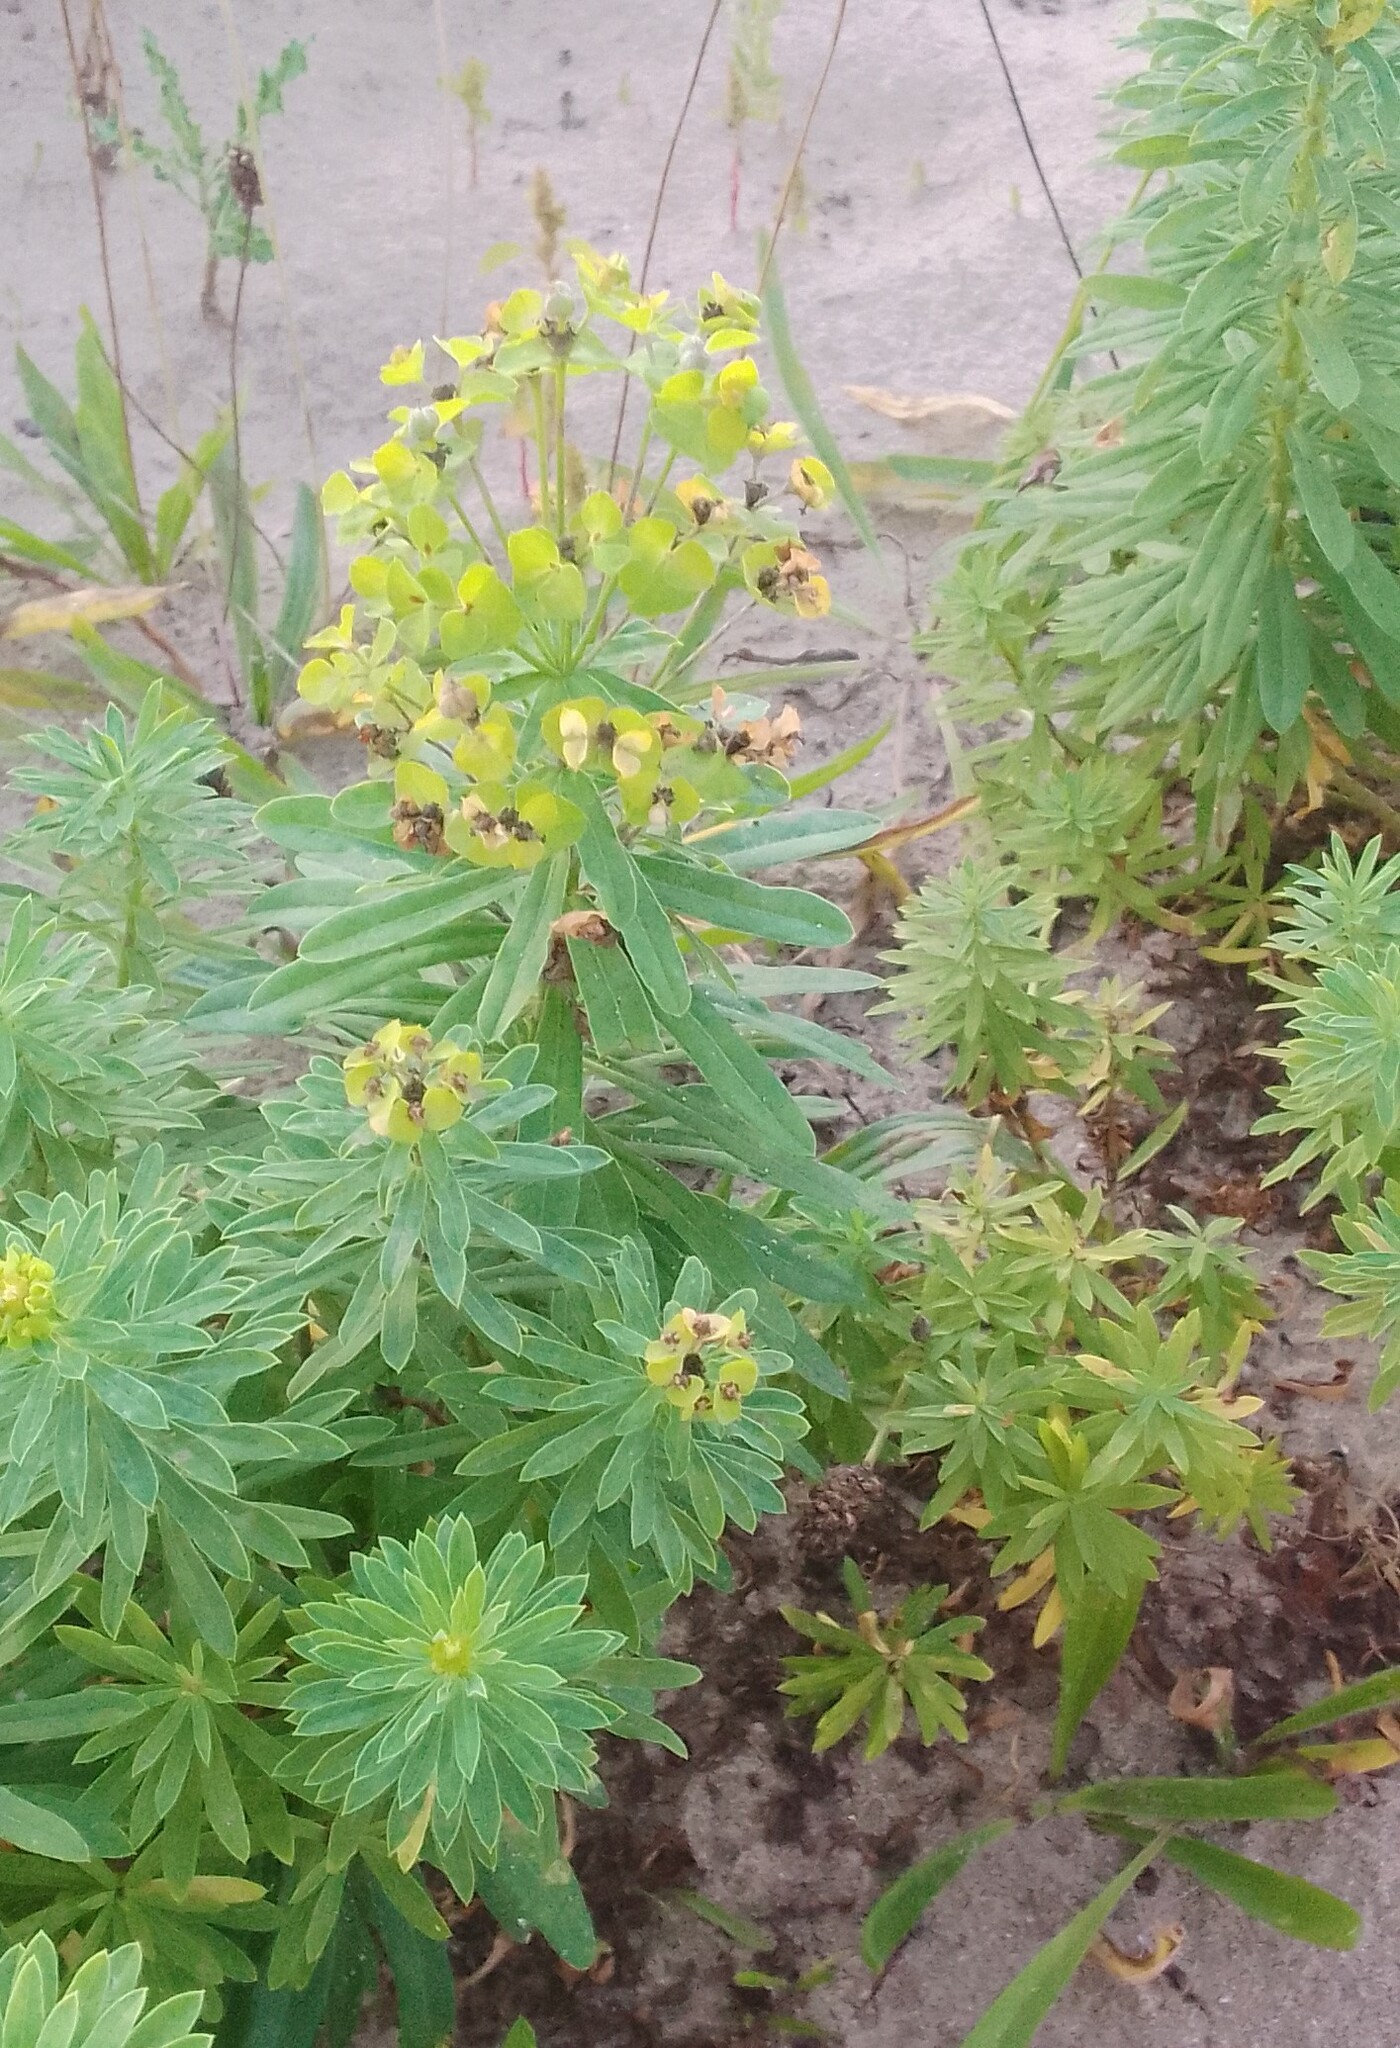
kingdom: Plantae
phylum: Tracheophyta
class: Magnoliopsida
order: Malpighiales
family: Euphorbiaceae
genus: Euphorbia
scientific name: Euphorbia esula
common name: Leafy spurge
